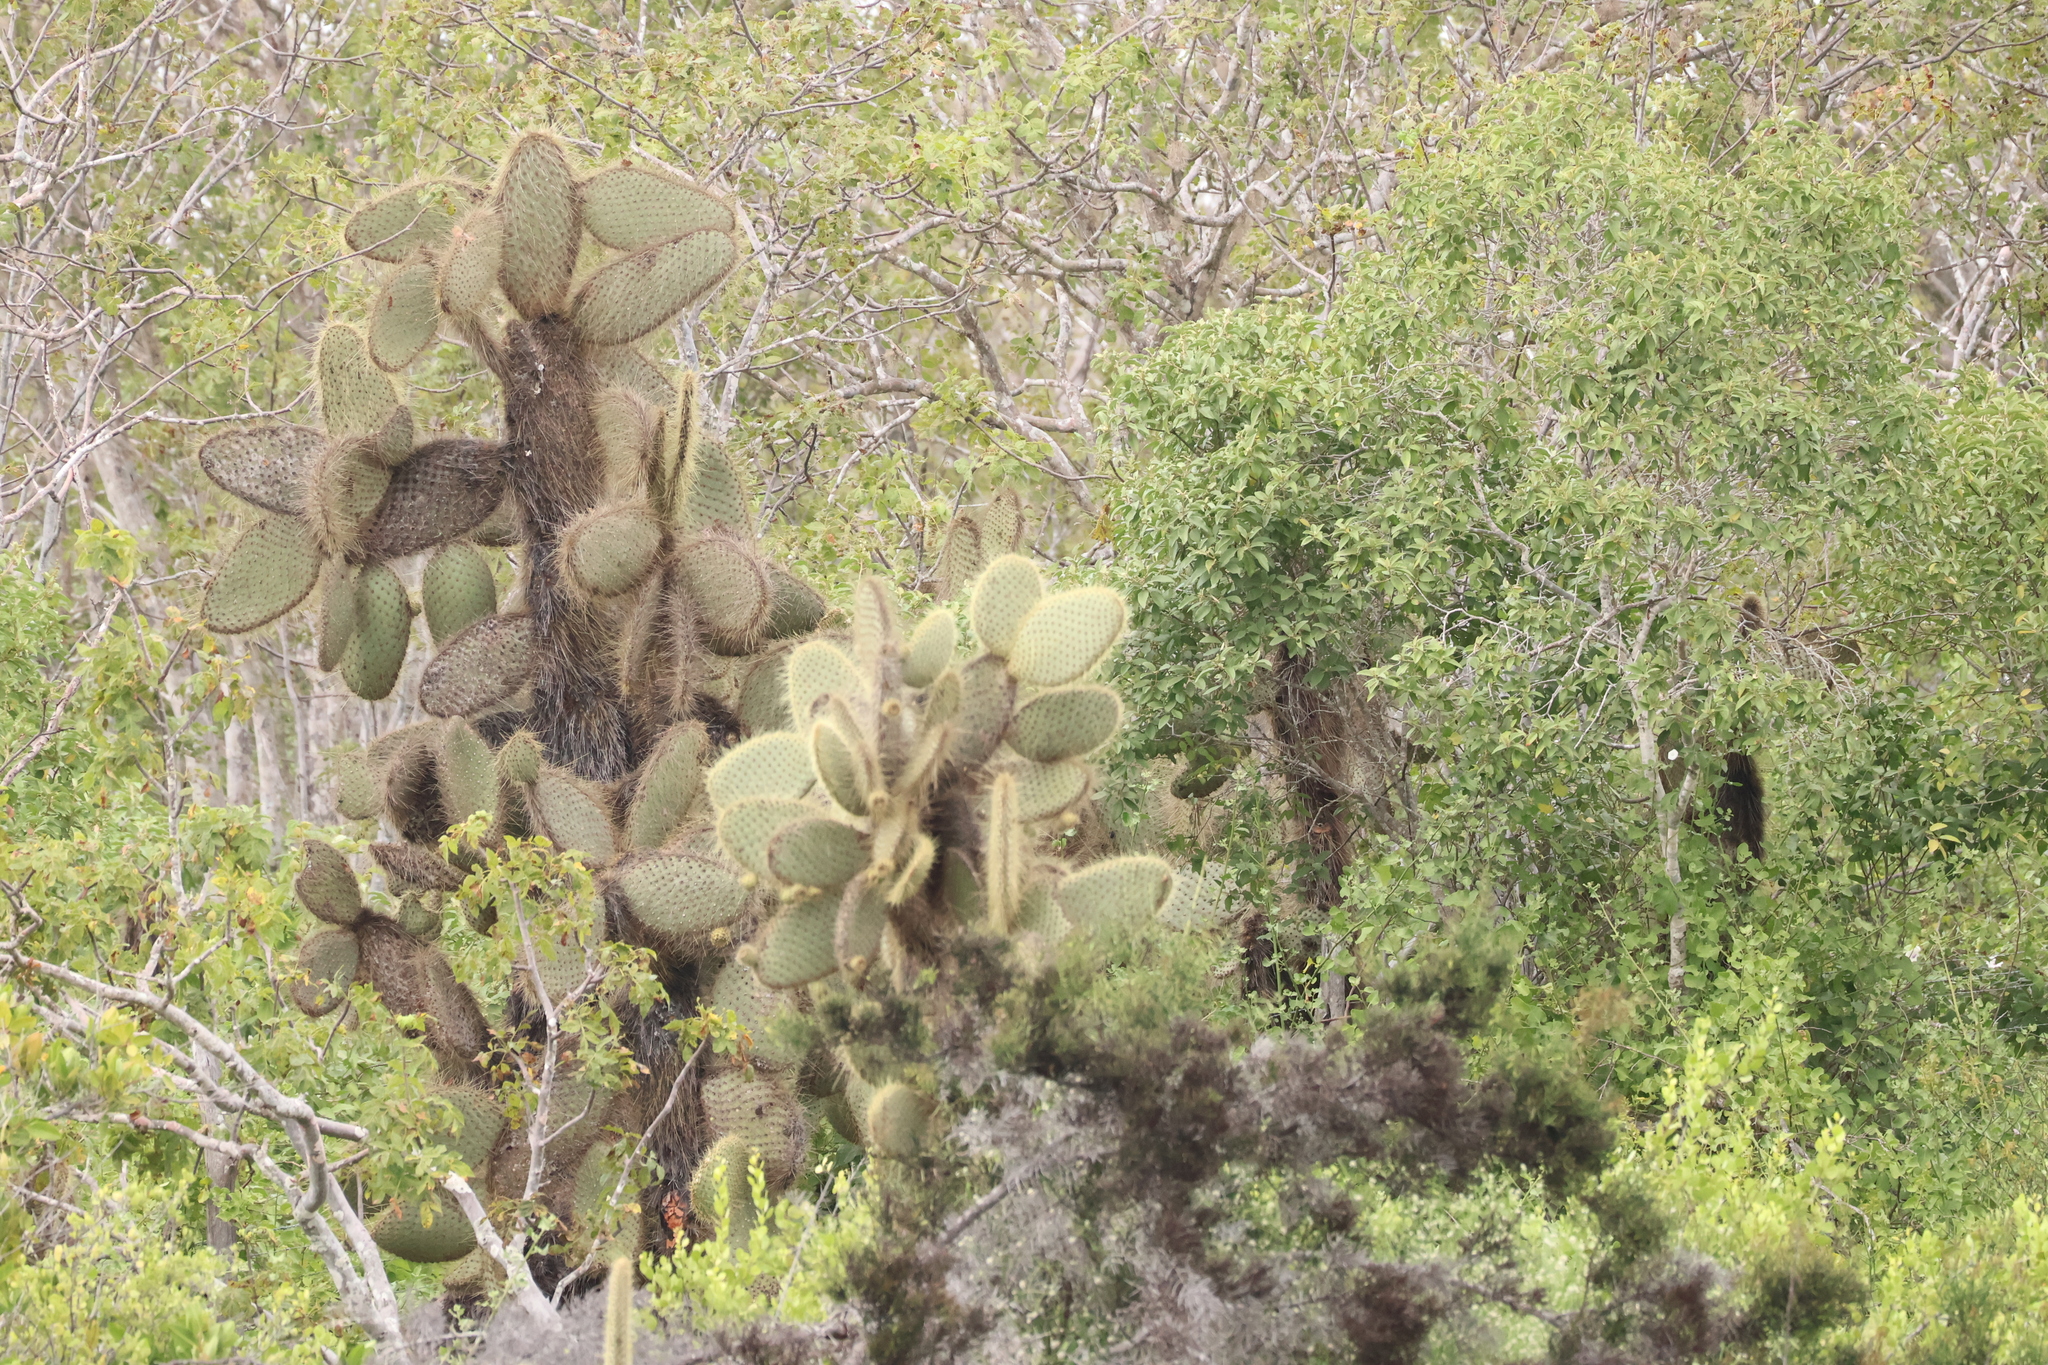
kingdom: Plantae
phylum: Tracheophyta
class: Magnoliopsida
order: Caryophyllales
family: Cactaceae
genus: Opuntia
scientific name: Opuntia galapageia
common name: Galápagos prickly pear
